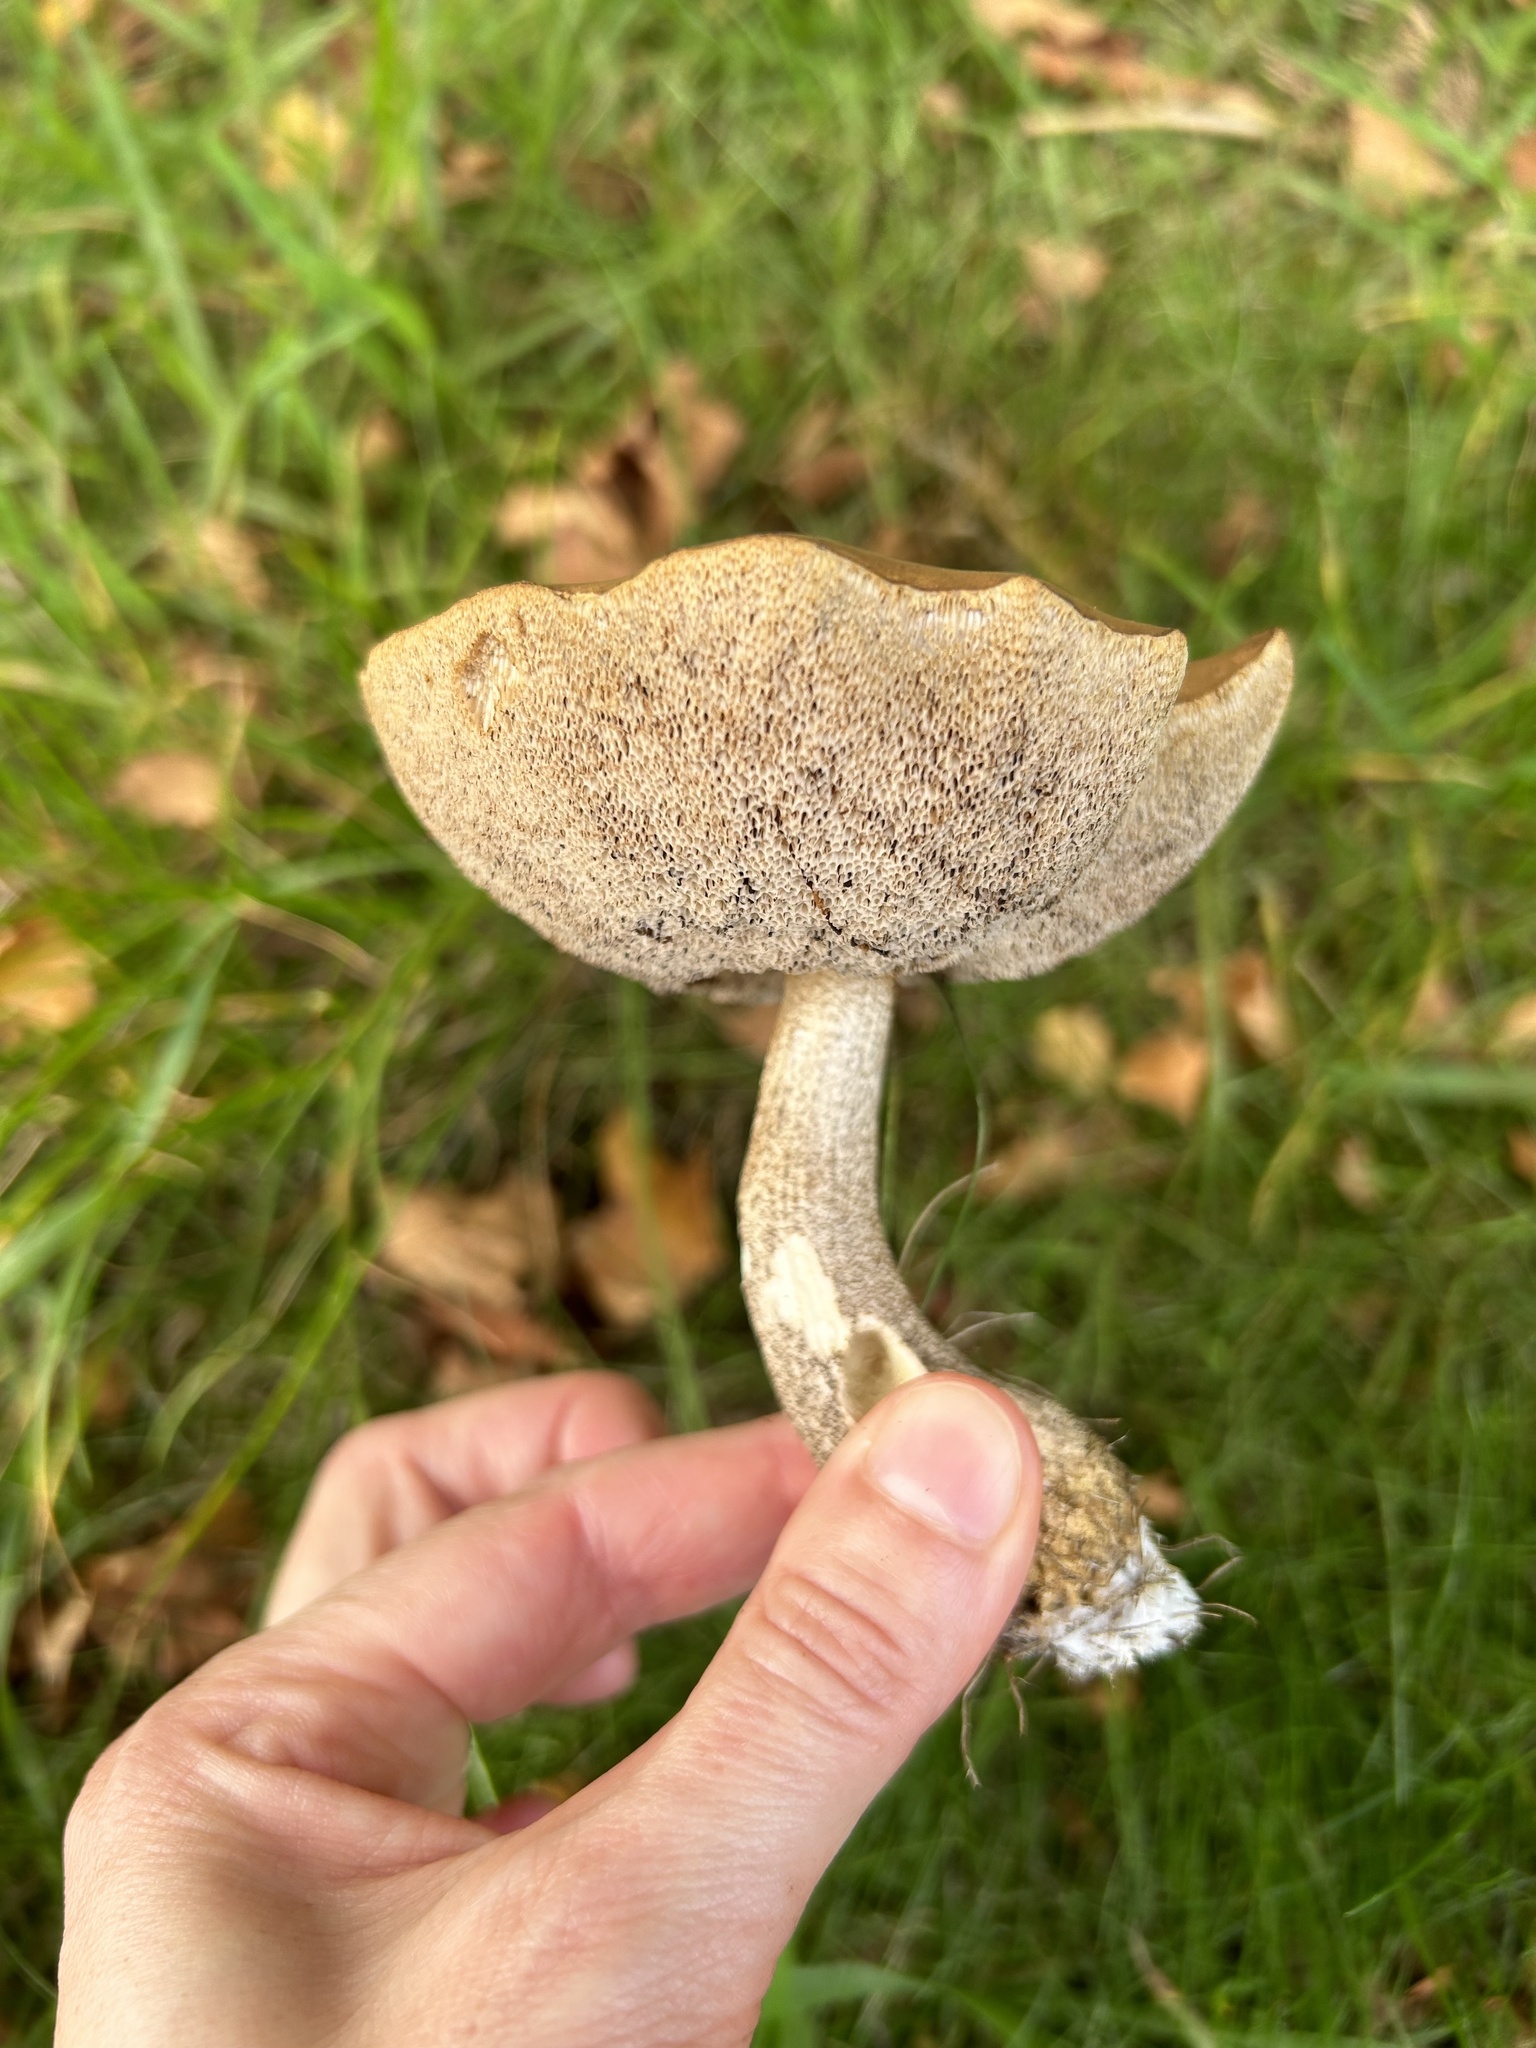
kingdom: Fungi
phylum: Basidiomycota
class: Agaricomycetes
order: Boletales
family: Boletaceae
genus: Leccinum
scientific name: Leccinum scabrum
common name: Blushing bolete
